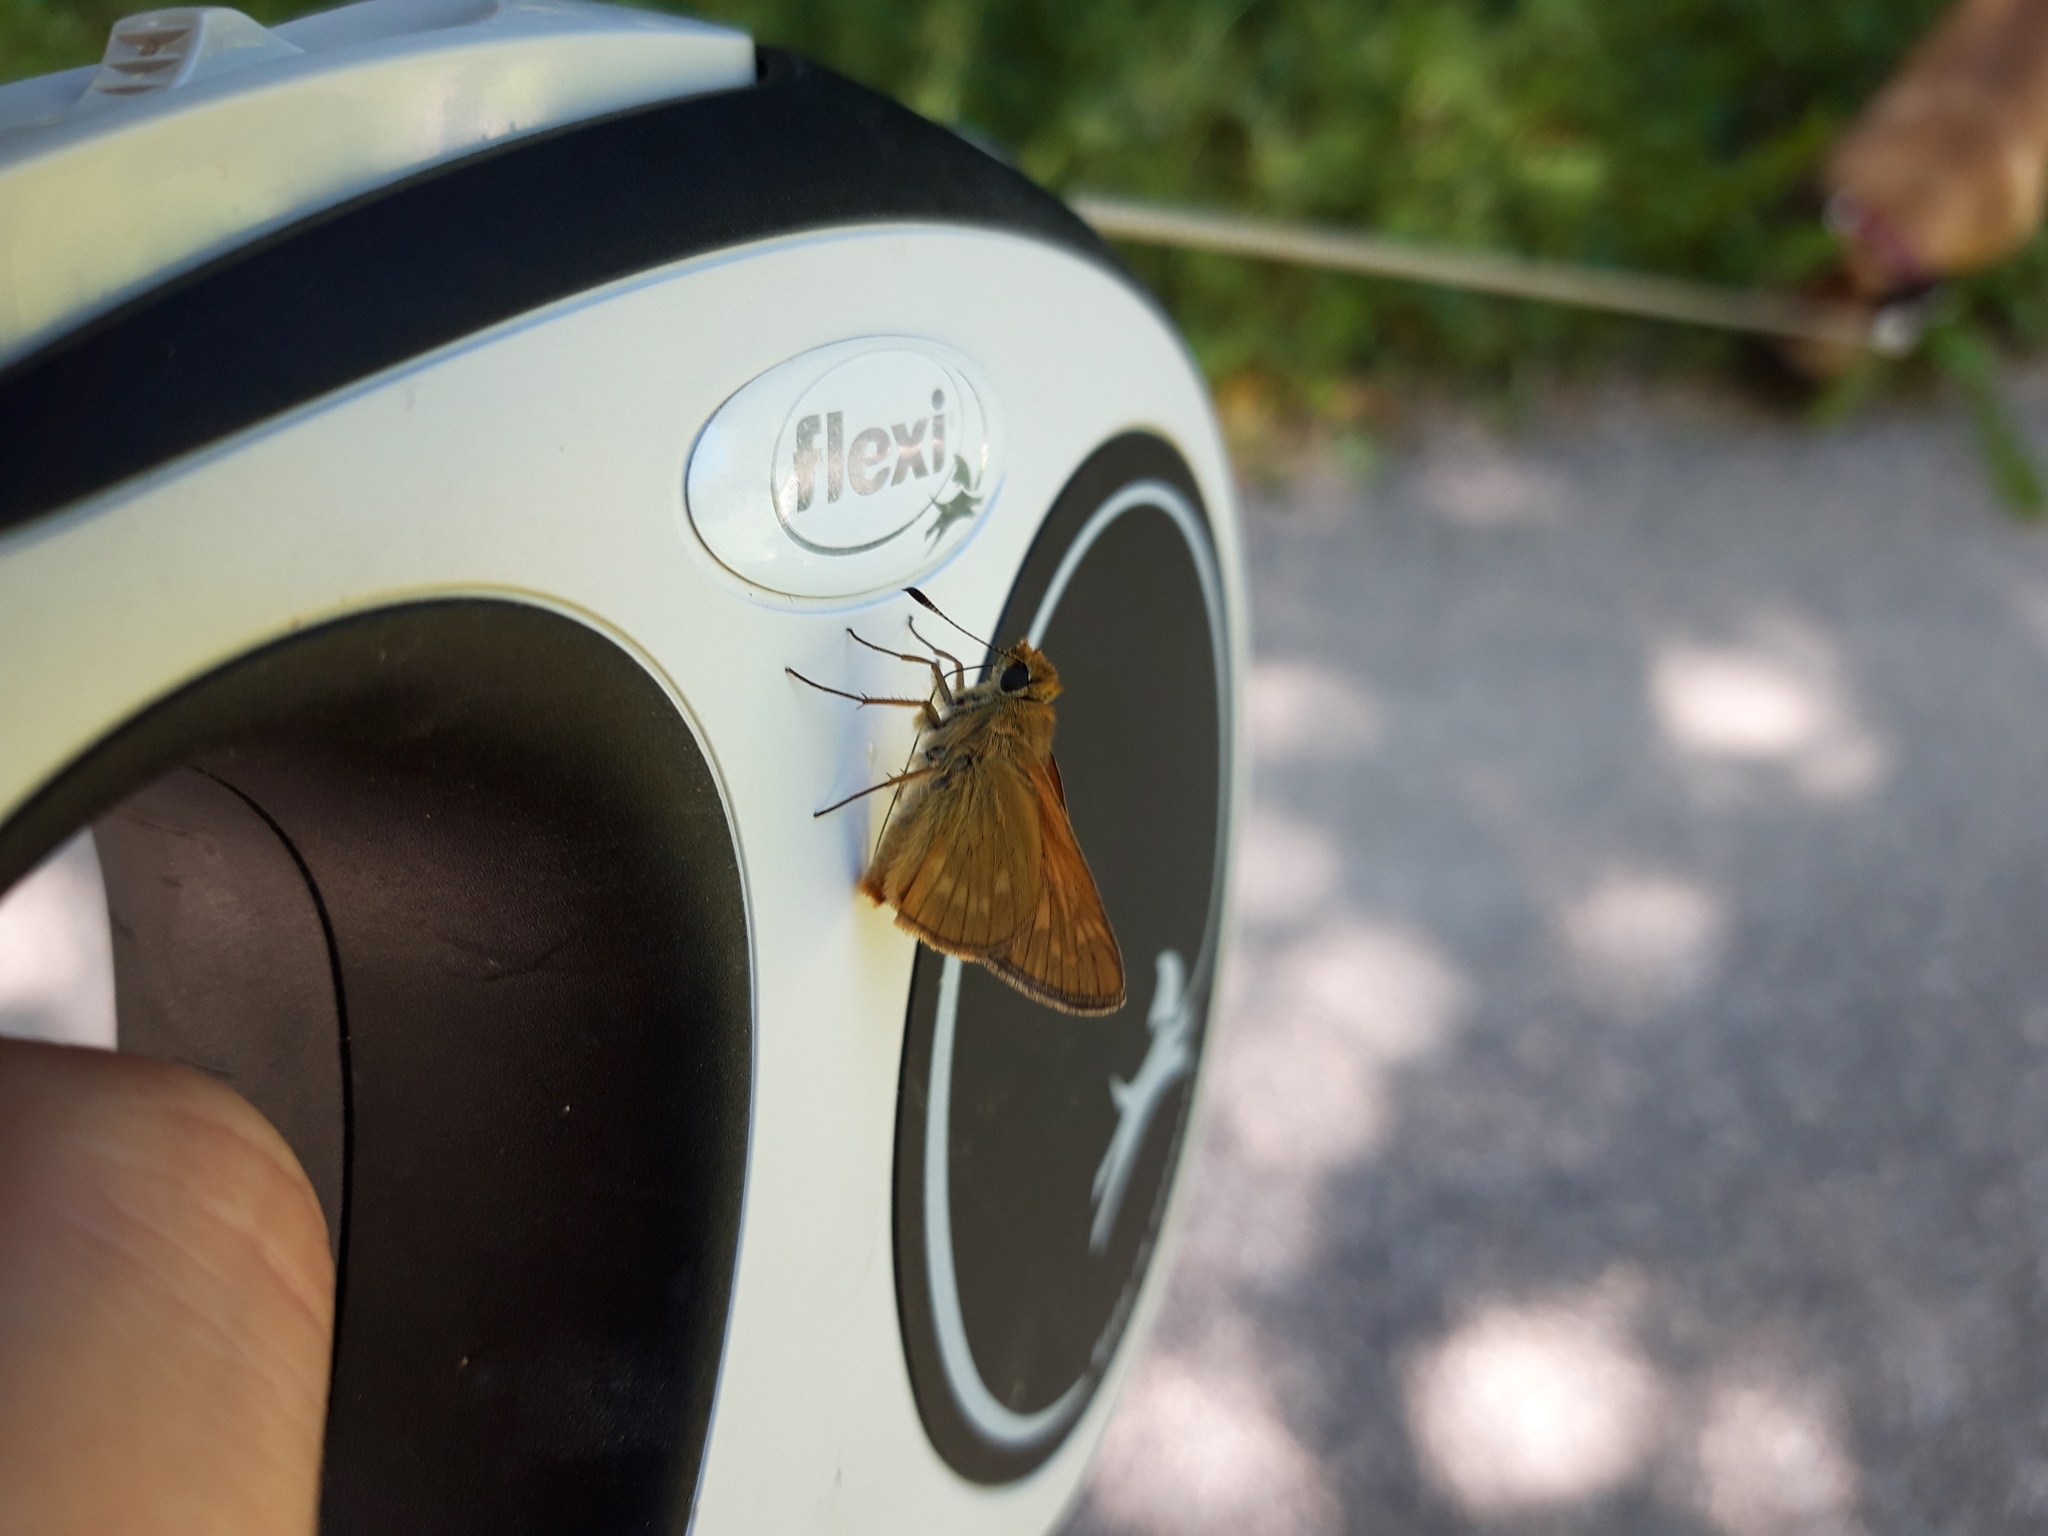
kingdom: Animalia
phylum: Arthropoda
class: Insecta
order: Lepidoptera
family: Hesperiidae
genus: Ochlodes
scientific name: Ochlodes venata
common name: Large skipper
